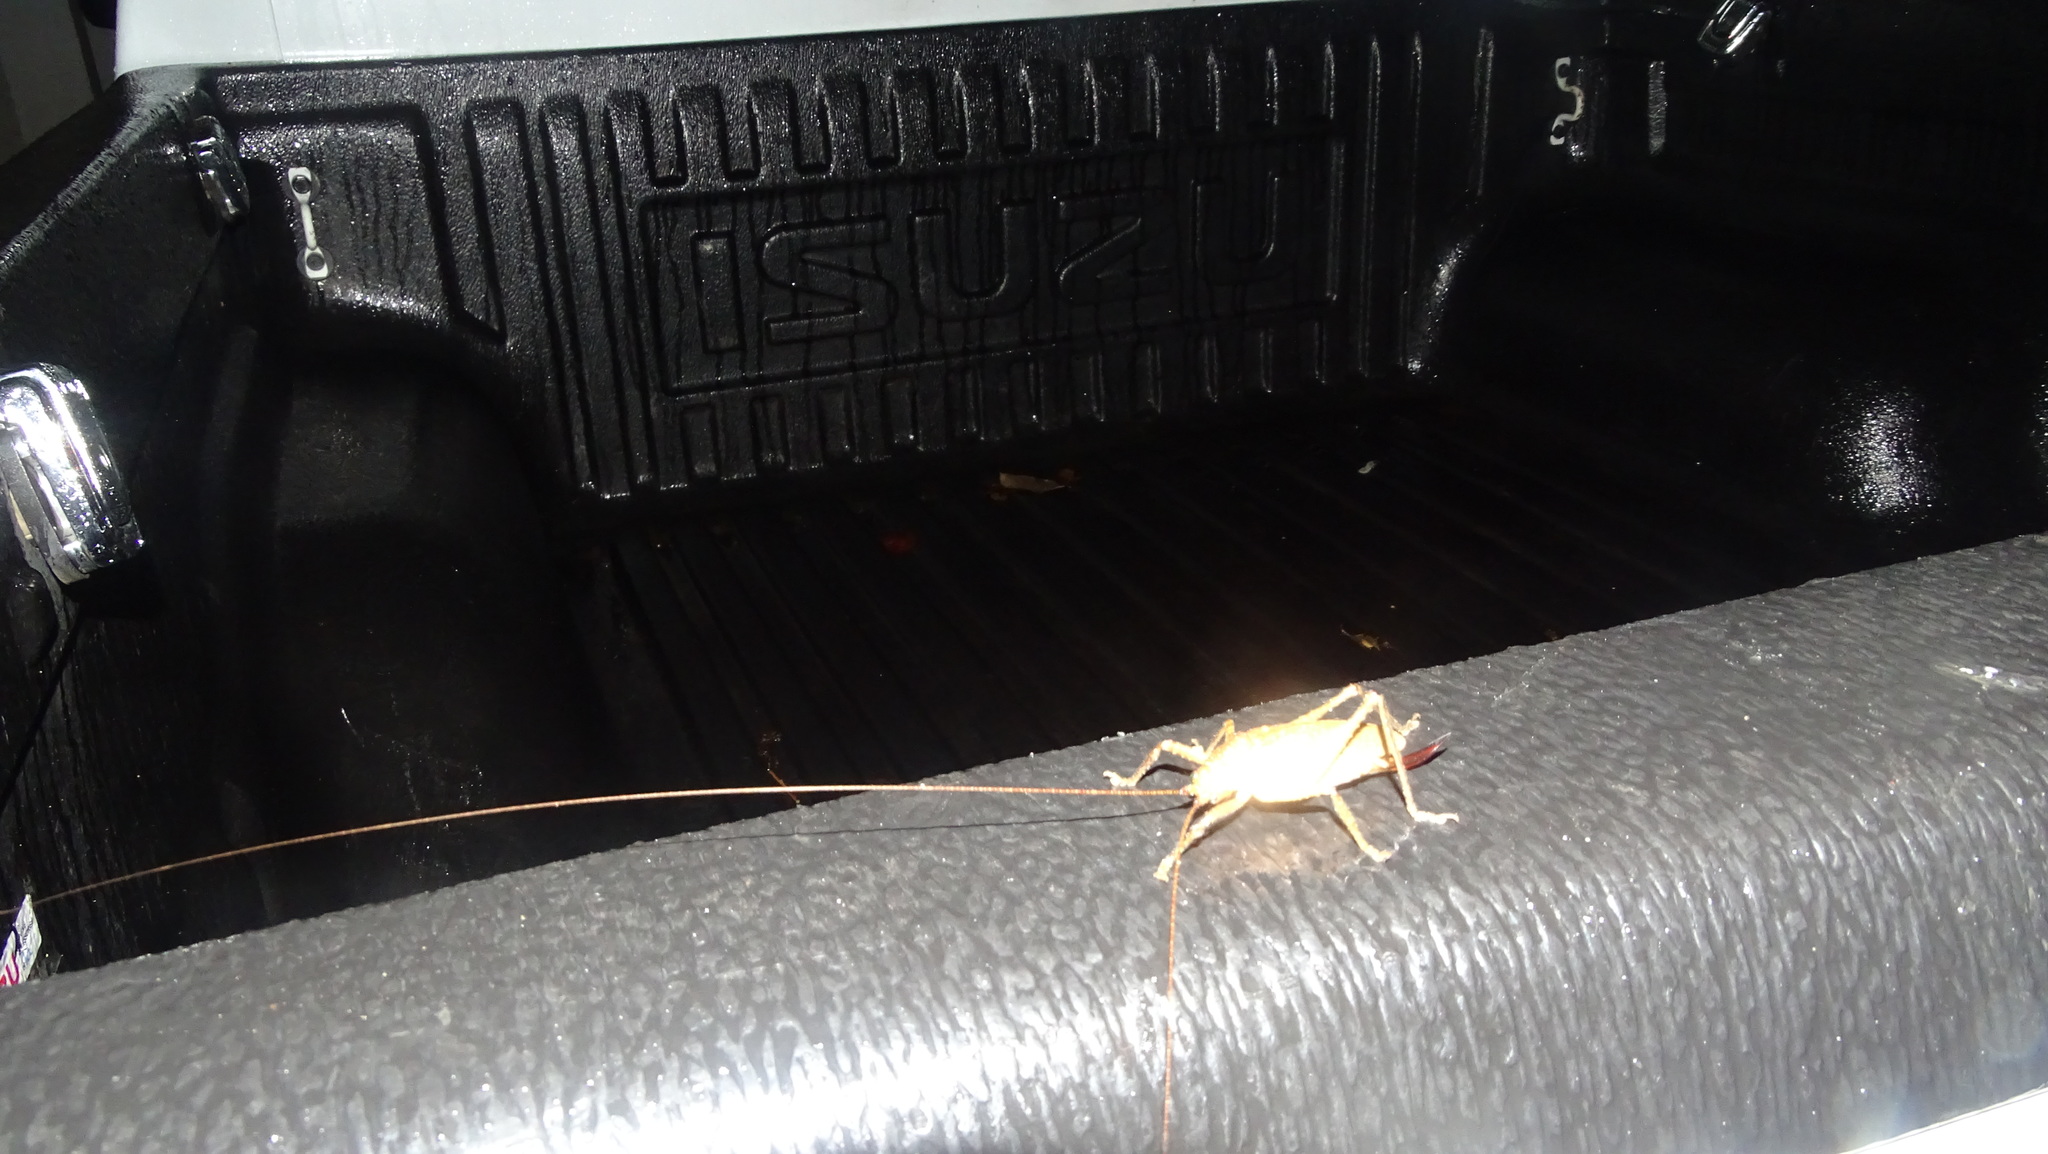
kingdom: Animalia
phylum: Arthropoda
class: Insecta
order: Orthoptera
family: Tettigoniidae
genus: Thamnobates
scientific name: Thamnobates subfalcata
